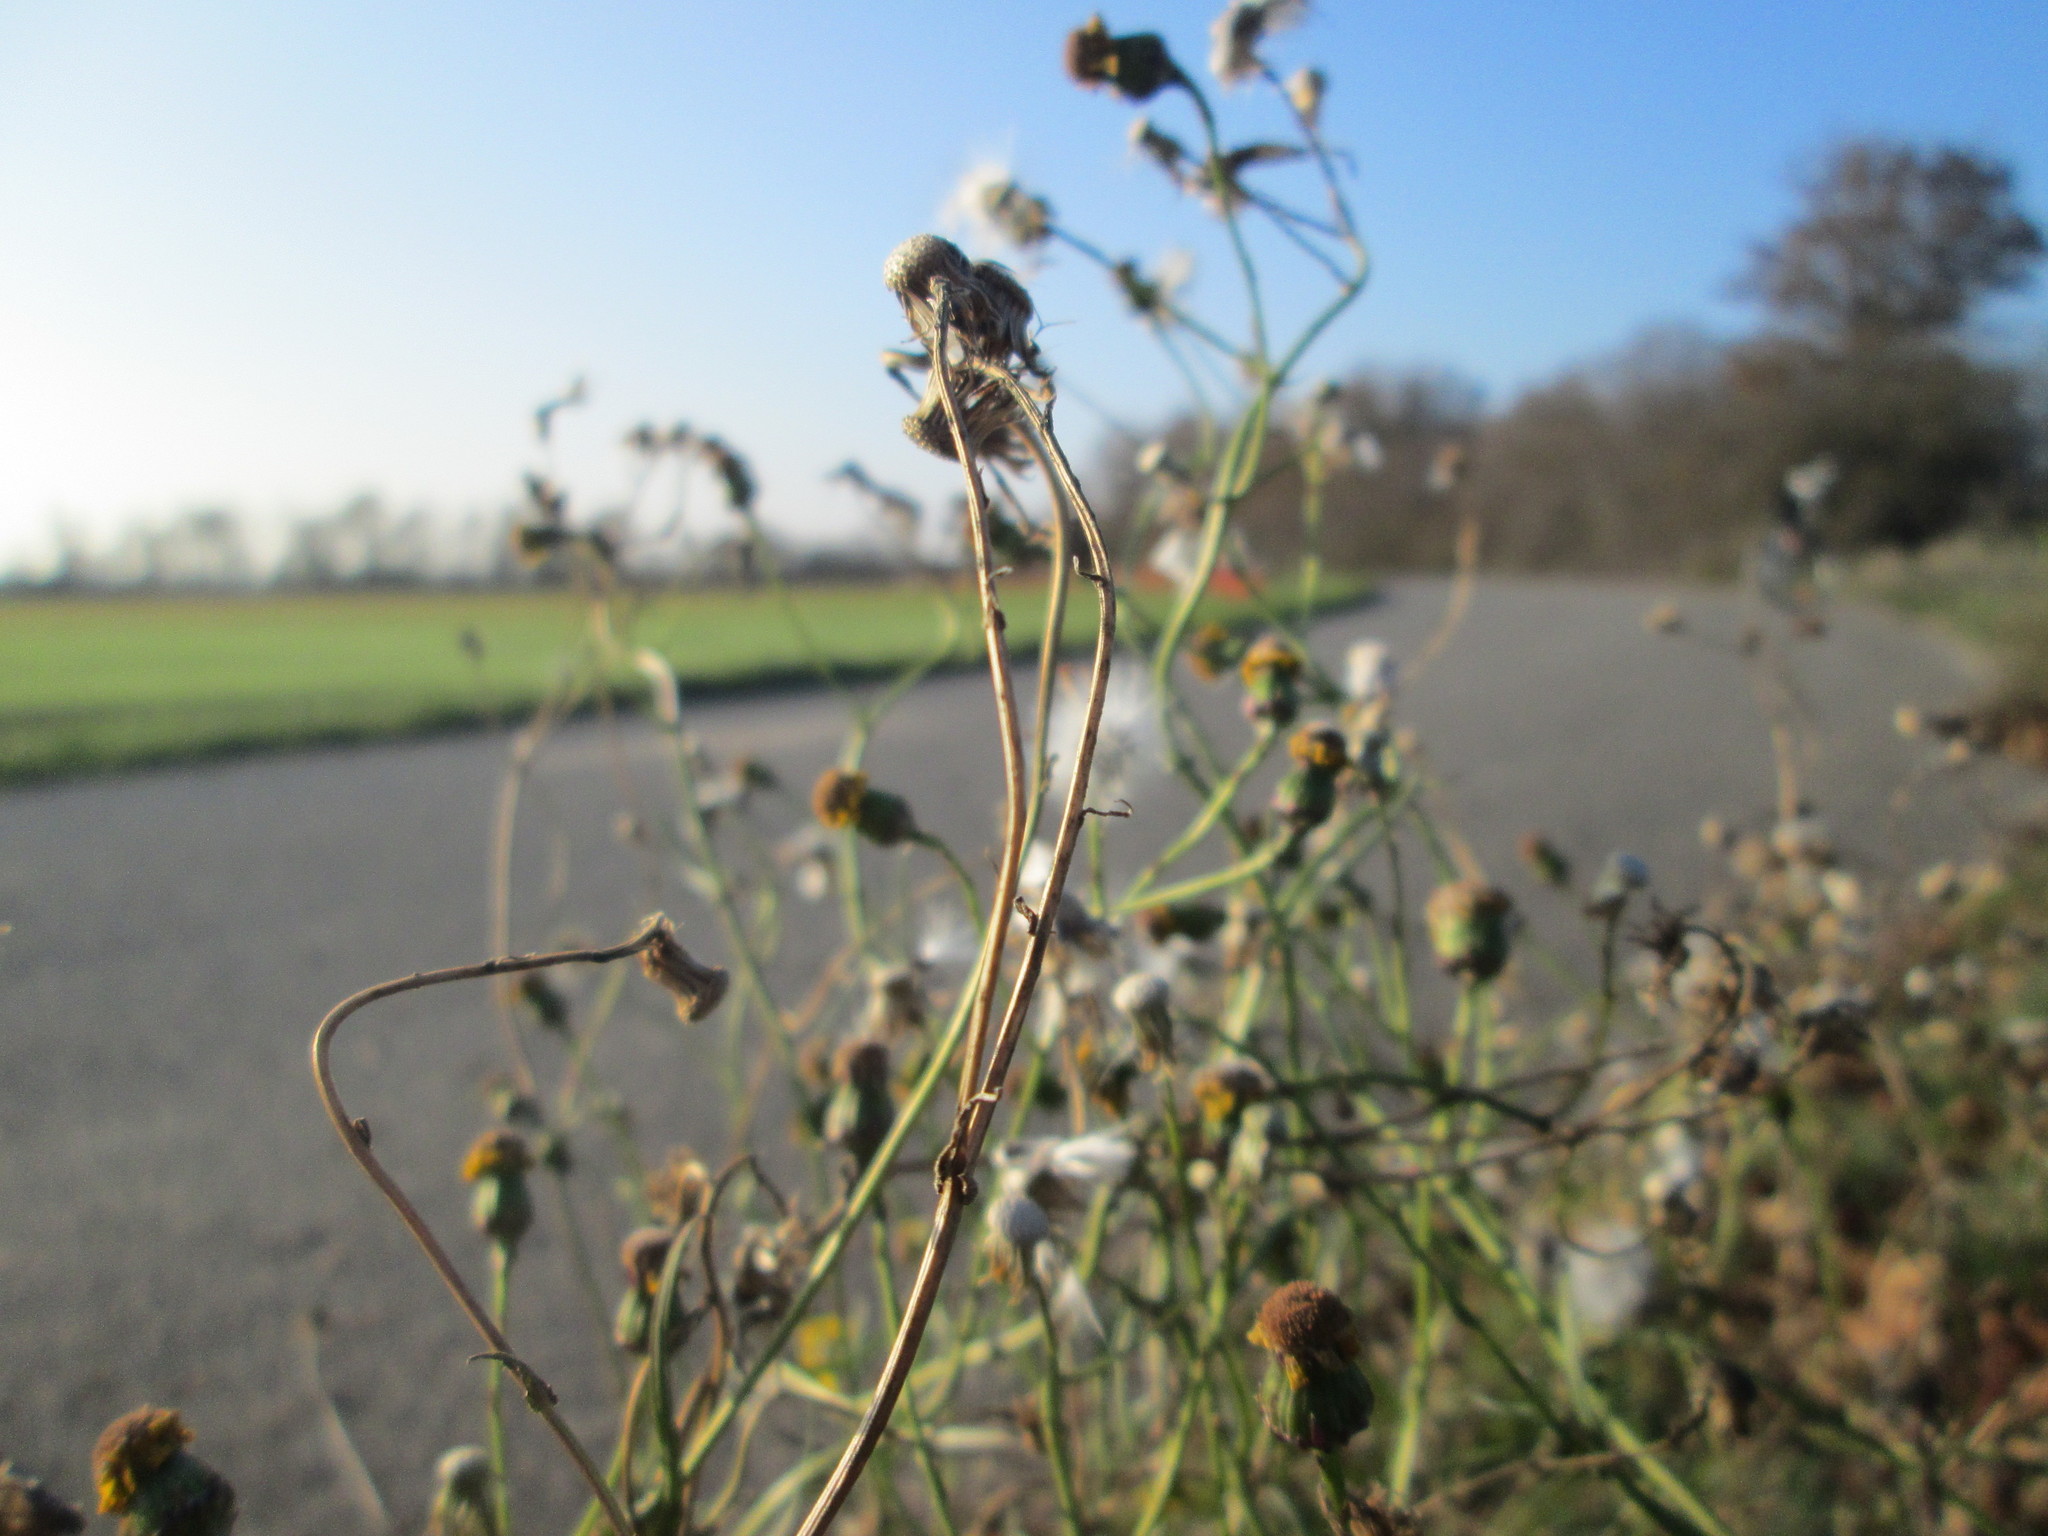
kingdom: Plantae
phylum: Tracheophyta
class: Magnoliopsida
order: Asterales
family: Asteraceae
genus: Senecio
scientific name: Senecio inaequidens
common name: Narrow-leaved ragwort
